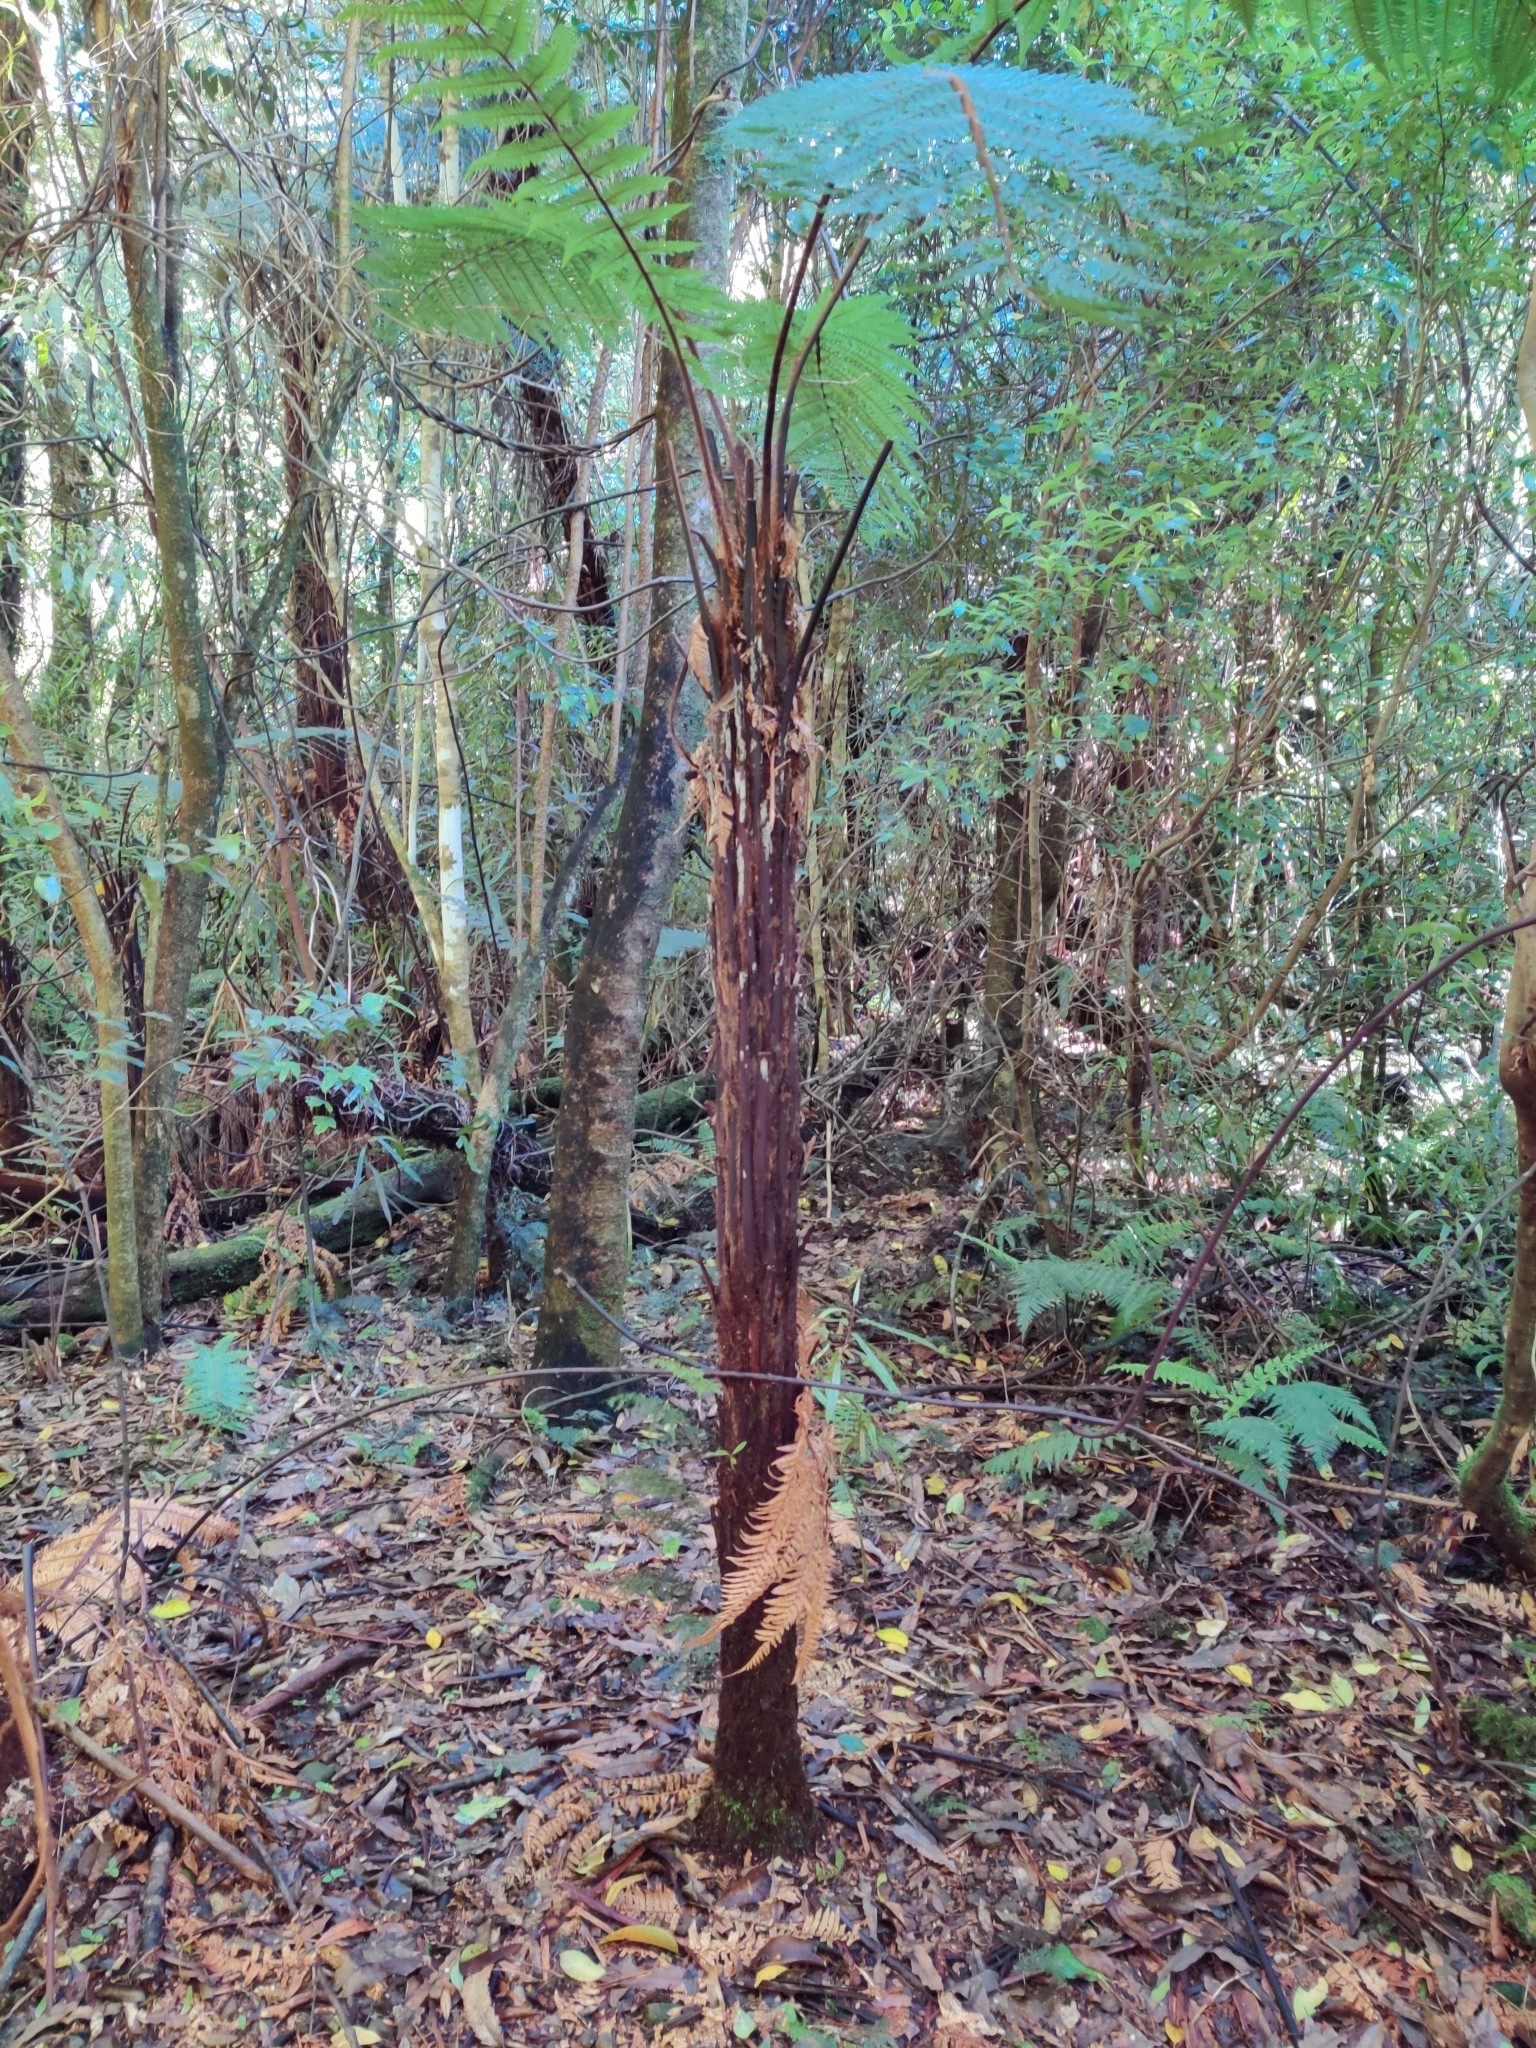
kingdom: Plantae
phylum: Tracheophyta
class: Polypodiopsida
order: Cyatheales
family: Dicksoniaceae
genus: Dicksonia
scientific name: Dicksonia squarrosa
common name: Hard treefern
